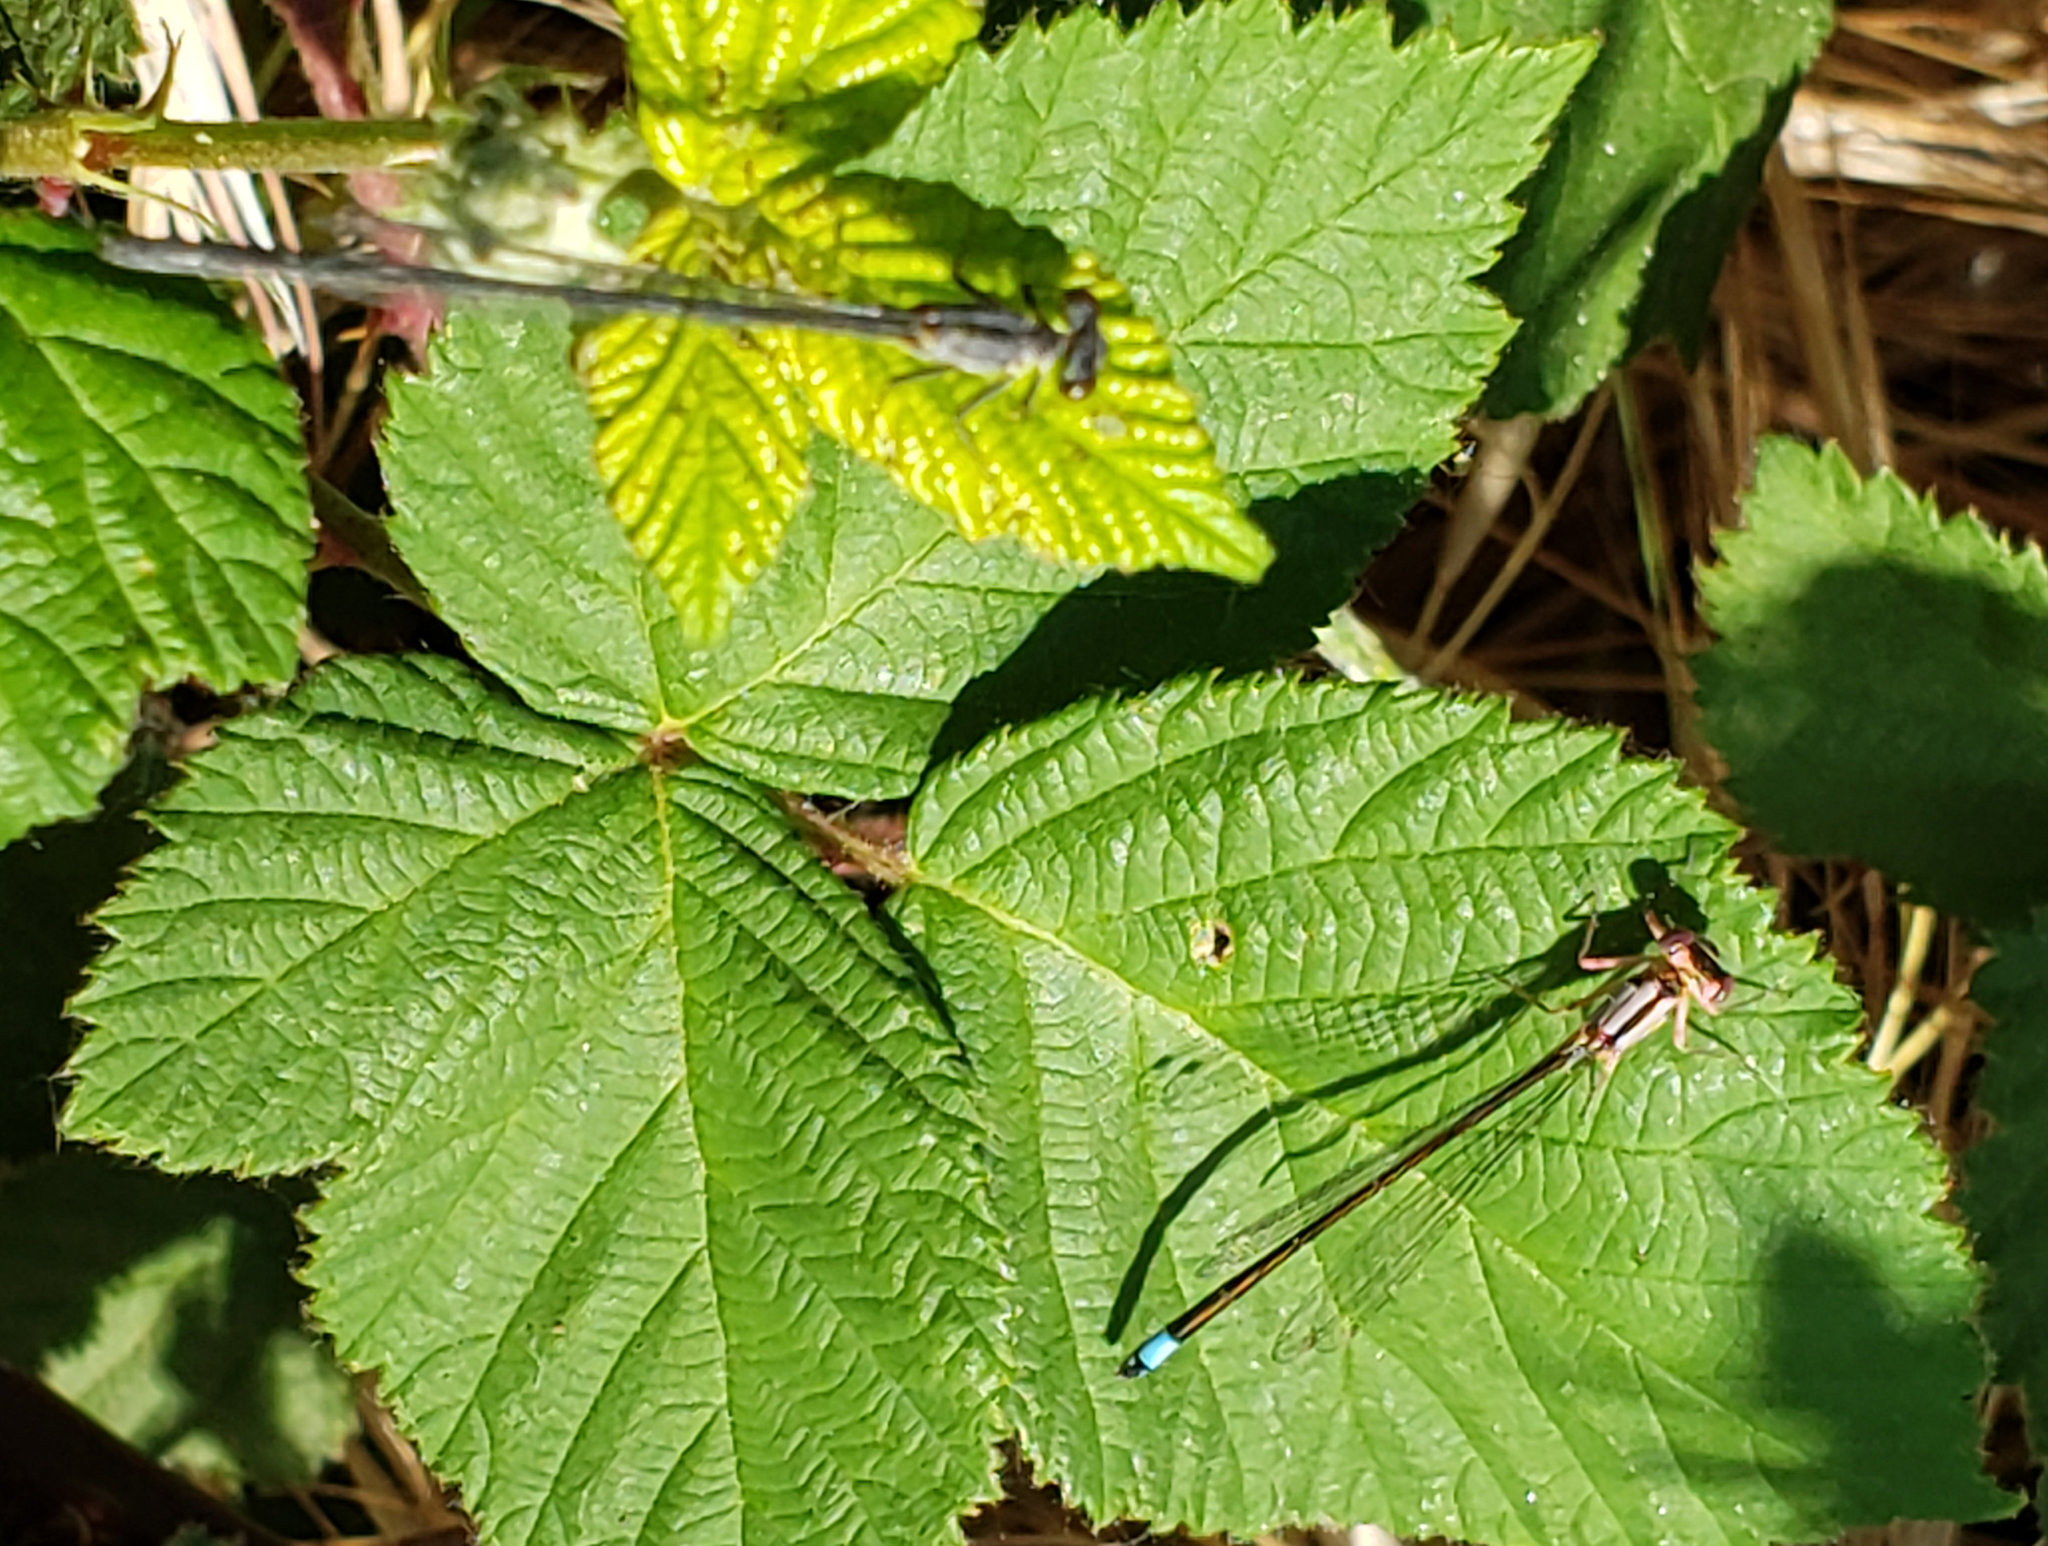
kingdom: Animalia
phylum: Arthropoda
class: Insecta
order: Odonata
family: Coenagrionidae
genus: Ischnura
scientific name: Ischnura cervula
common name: Pacific forktail
